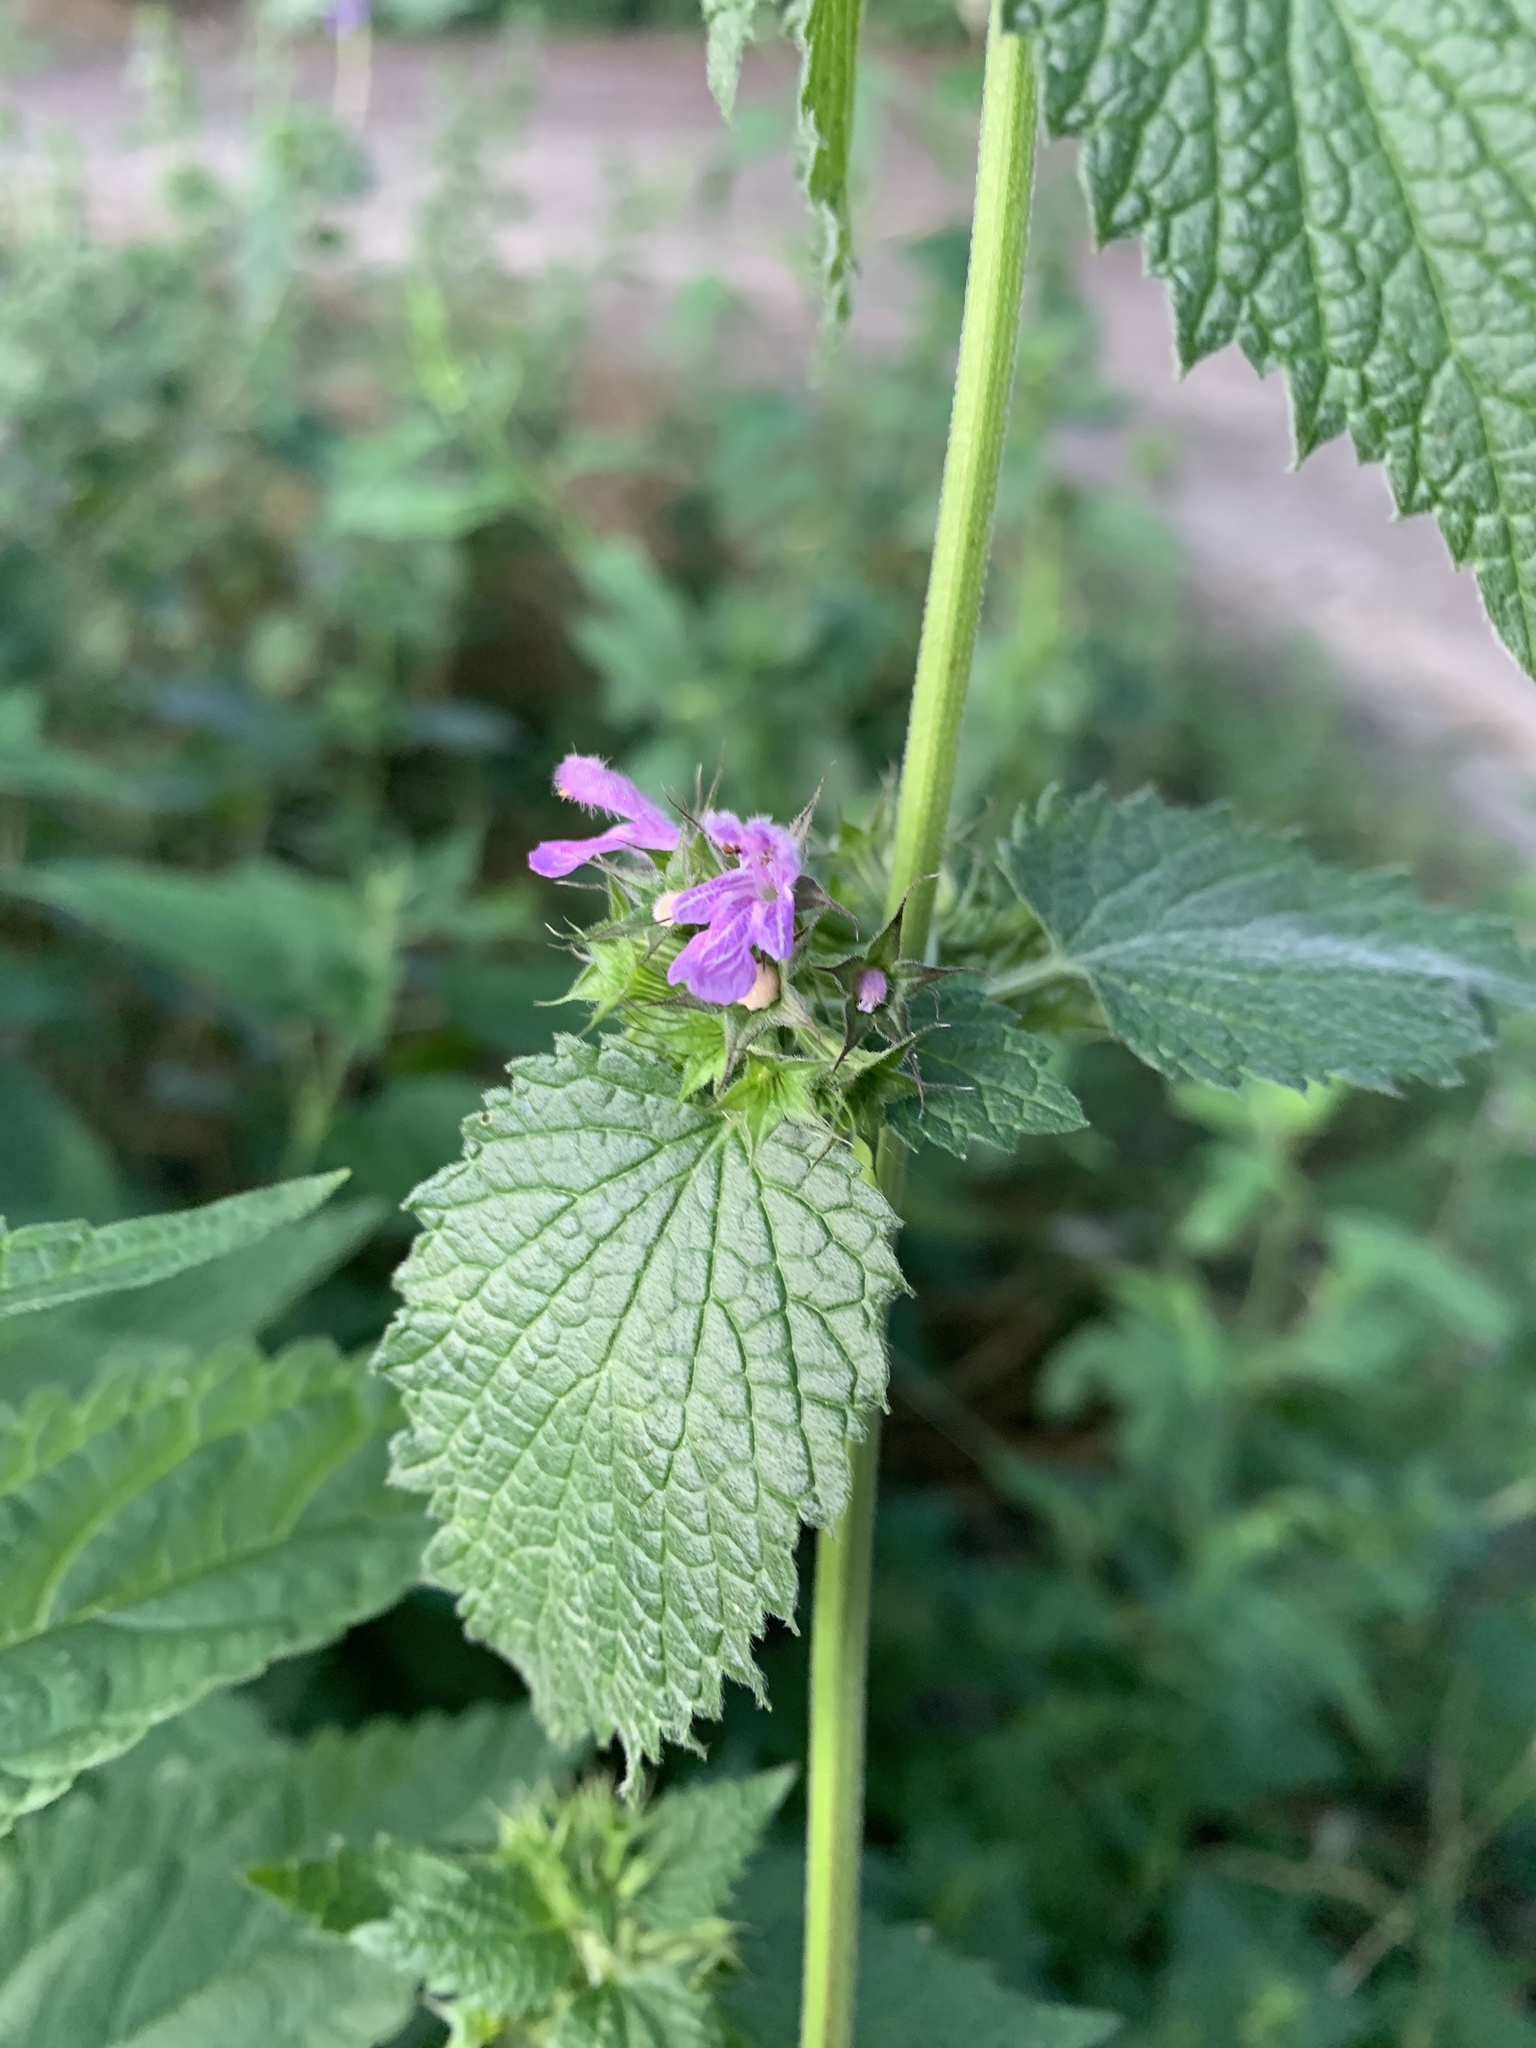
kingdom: Plantae
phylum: Tracheophyta
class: Magnoliopsida
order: Lamiales
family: Lamiaceae
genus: Ballota
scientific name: Ballota nigra
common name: Black horehound
